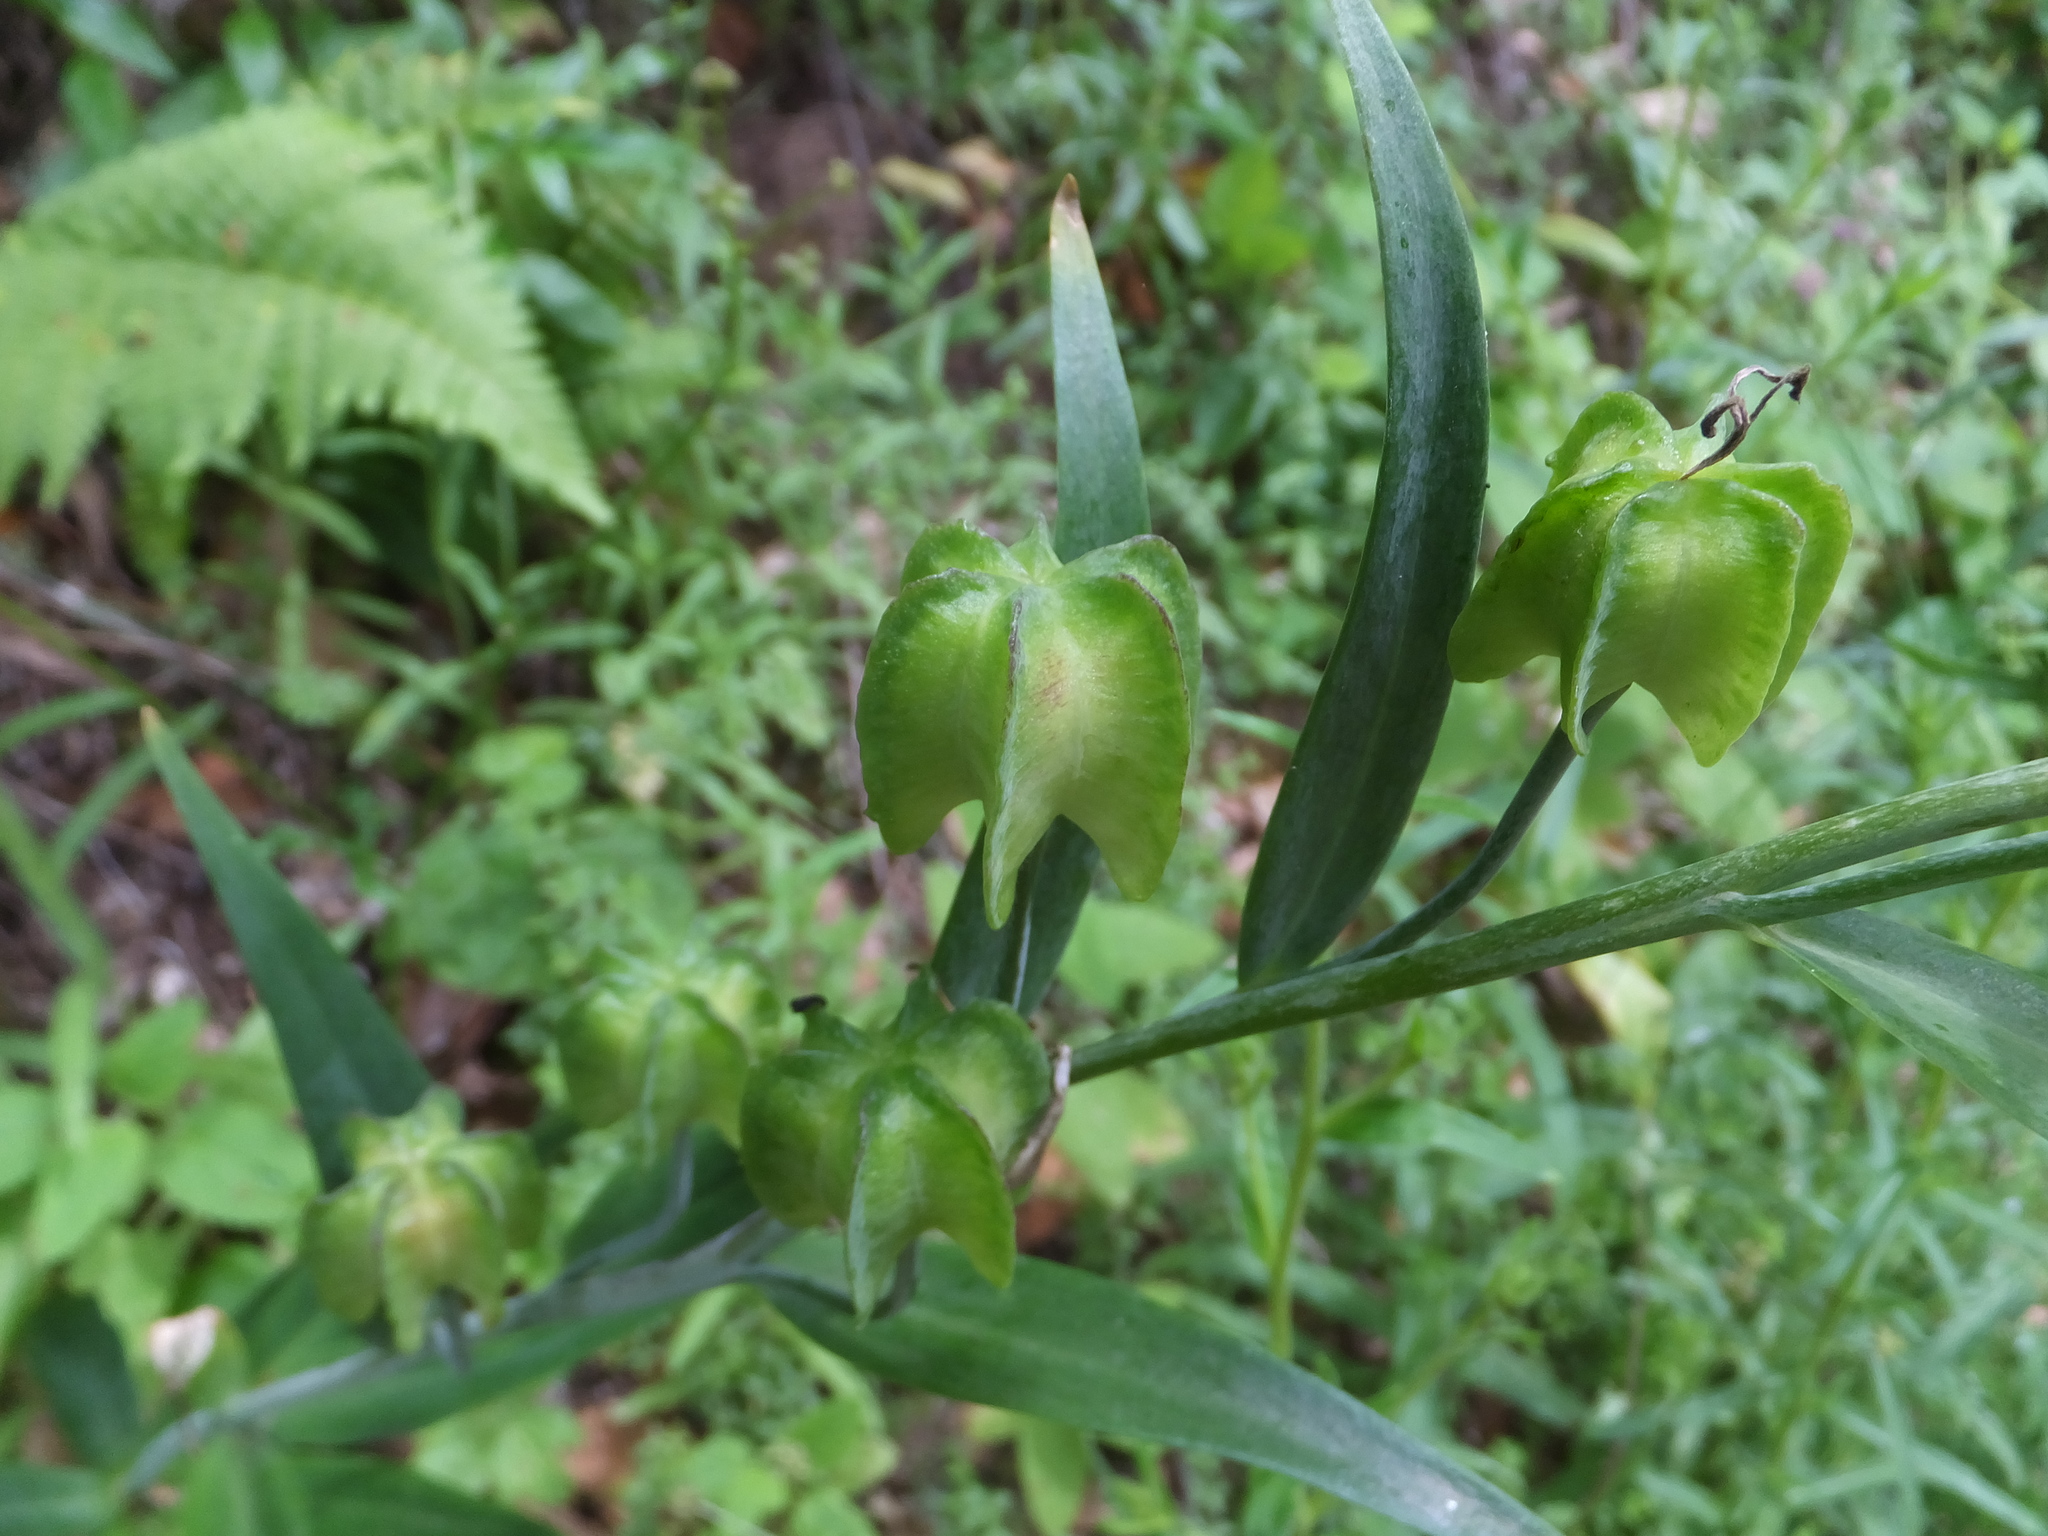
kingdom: Plantae
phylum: Tracheophyta
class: Liliopsida
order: Liliales
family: Liliaceae
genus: Fritillaria
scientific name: Fritillaria affinis
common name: Ojai fritillary
